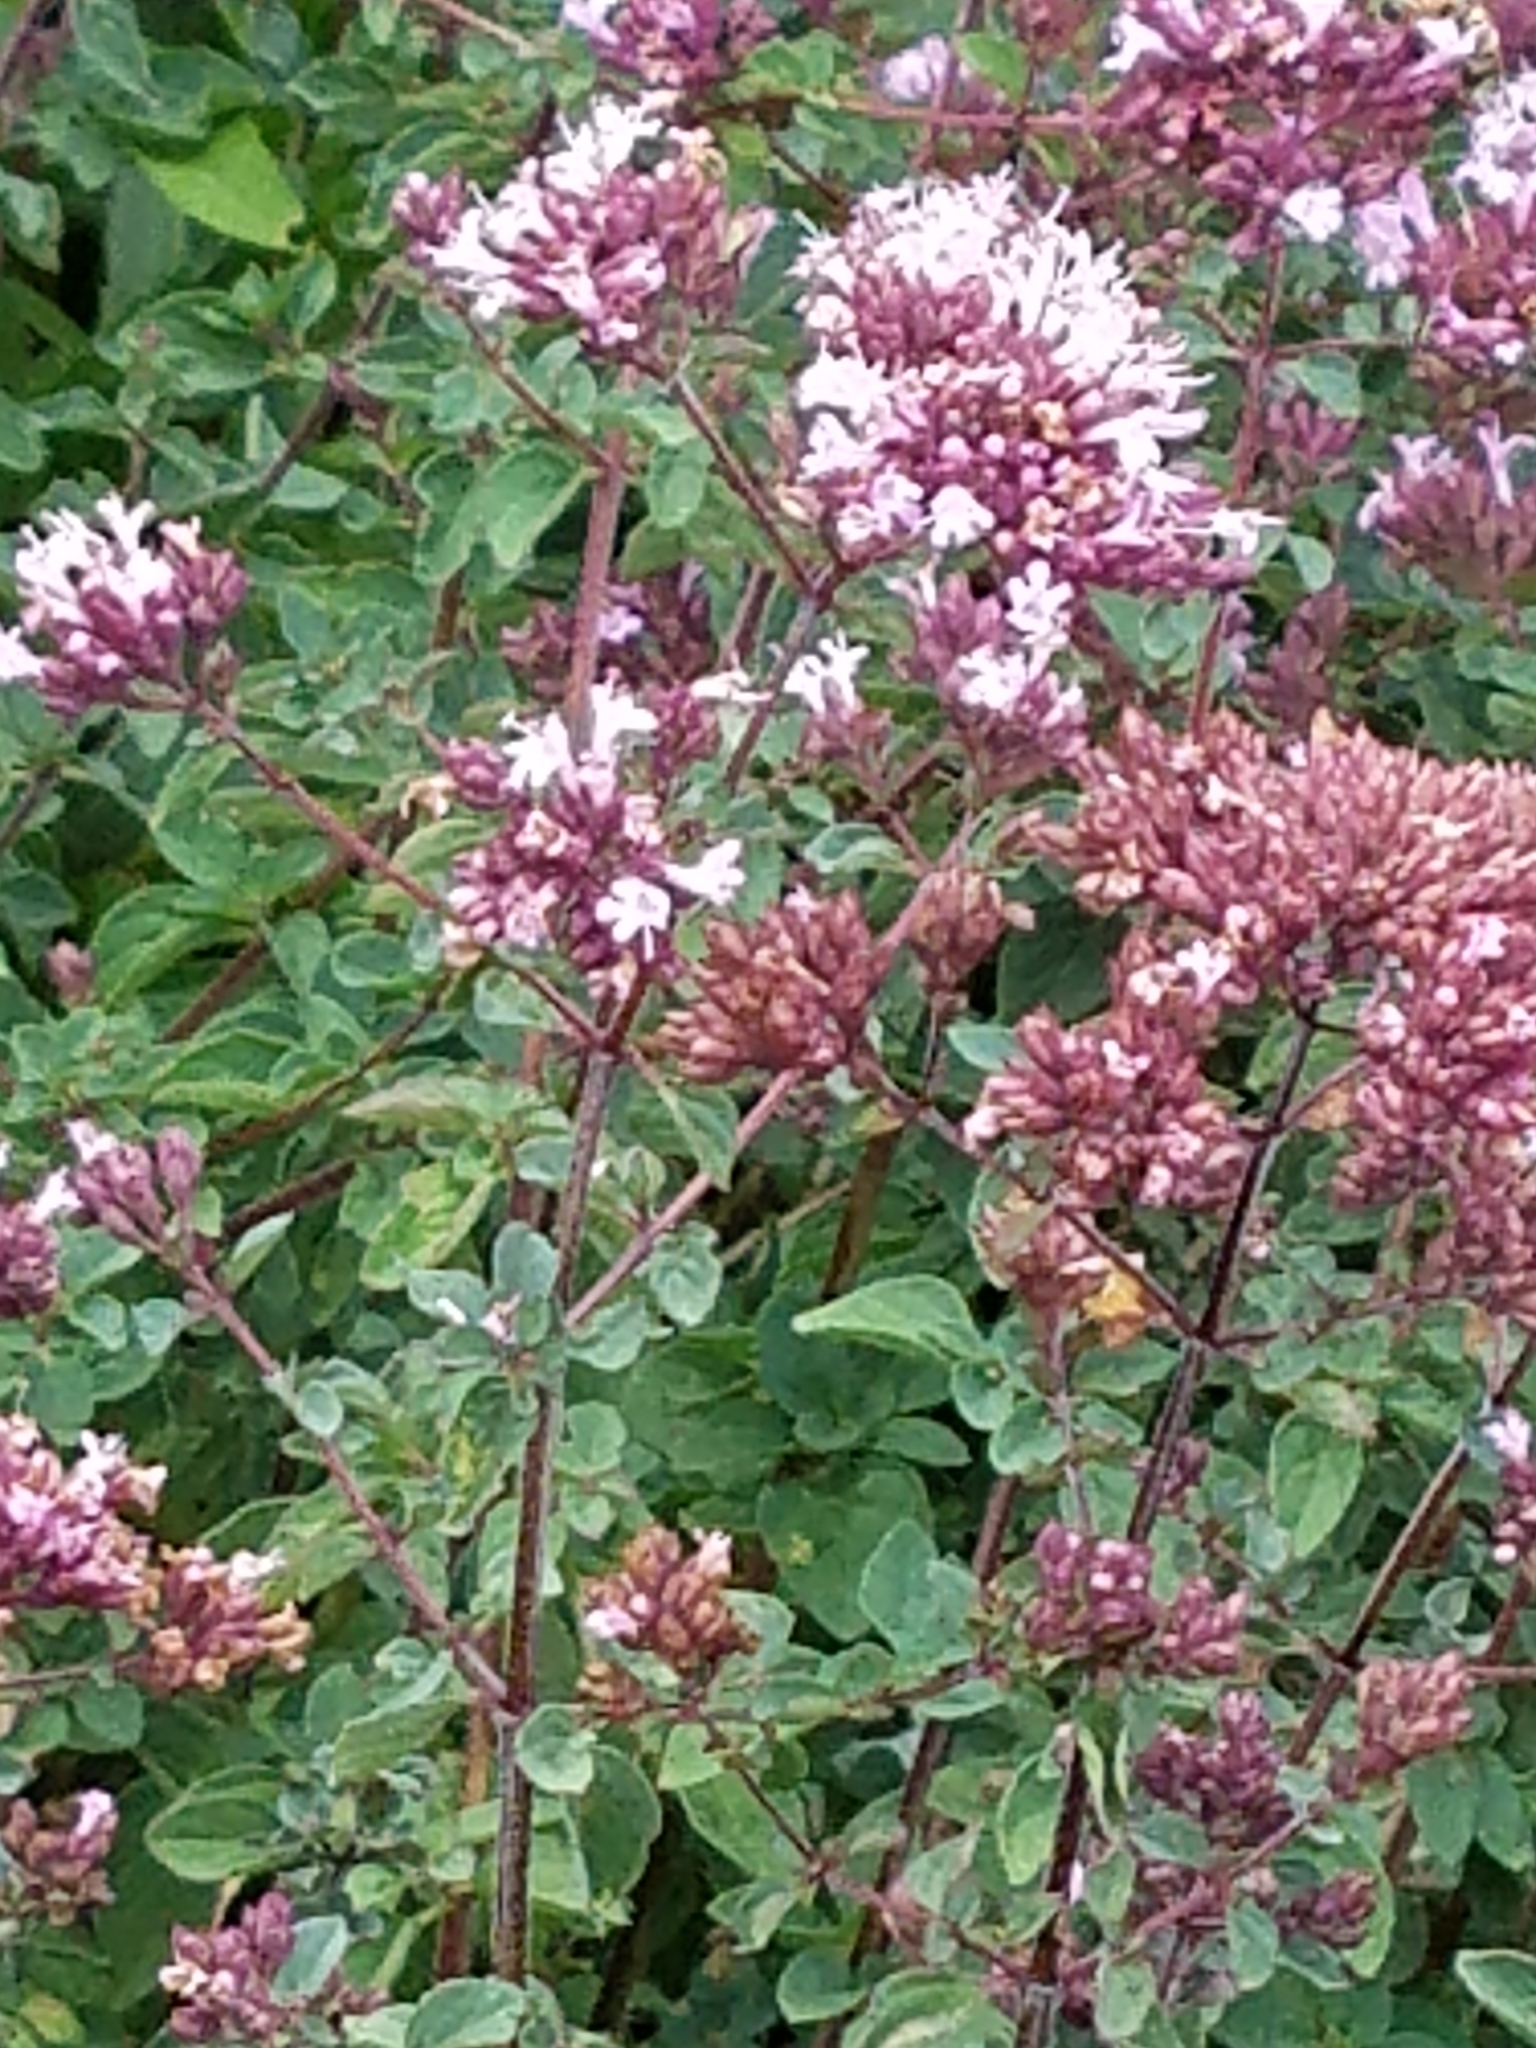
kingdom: Plantae
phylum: Tracheophyta
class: Magnoliopsida
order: Lamiales
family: Lamiaceae
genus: Origanum
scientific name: Origanum vulgare
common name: Wild marjoram
